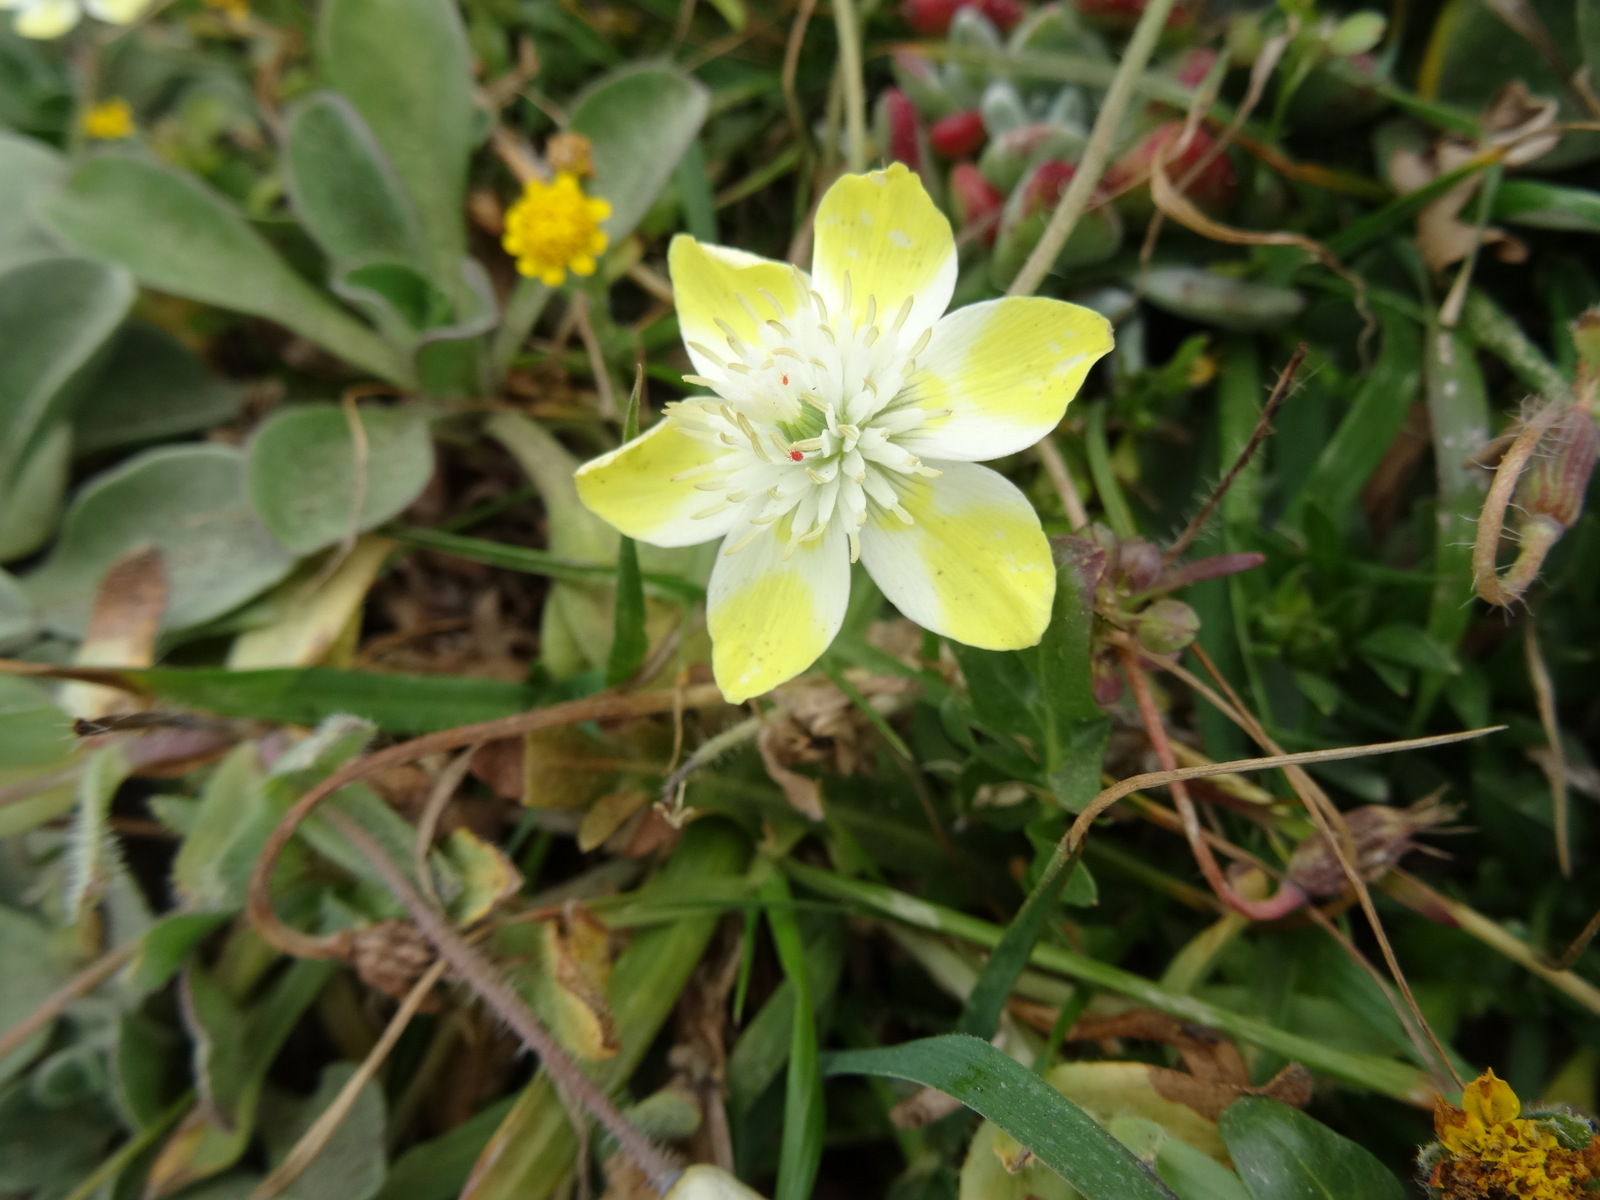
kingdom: Plantae
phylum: Tracheophyta
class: Magnoliopsida
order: Ranunculales
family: Papaveraceae
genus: Platystemon
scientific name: Platystemon californicus
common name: Cream-cups
